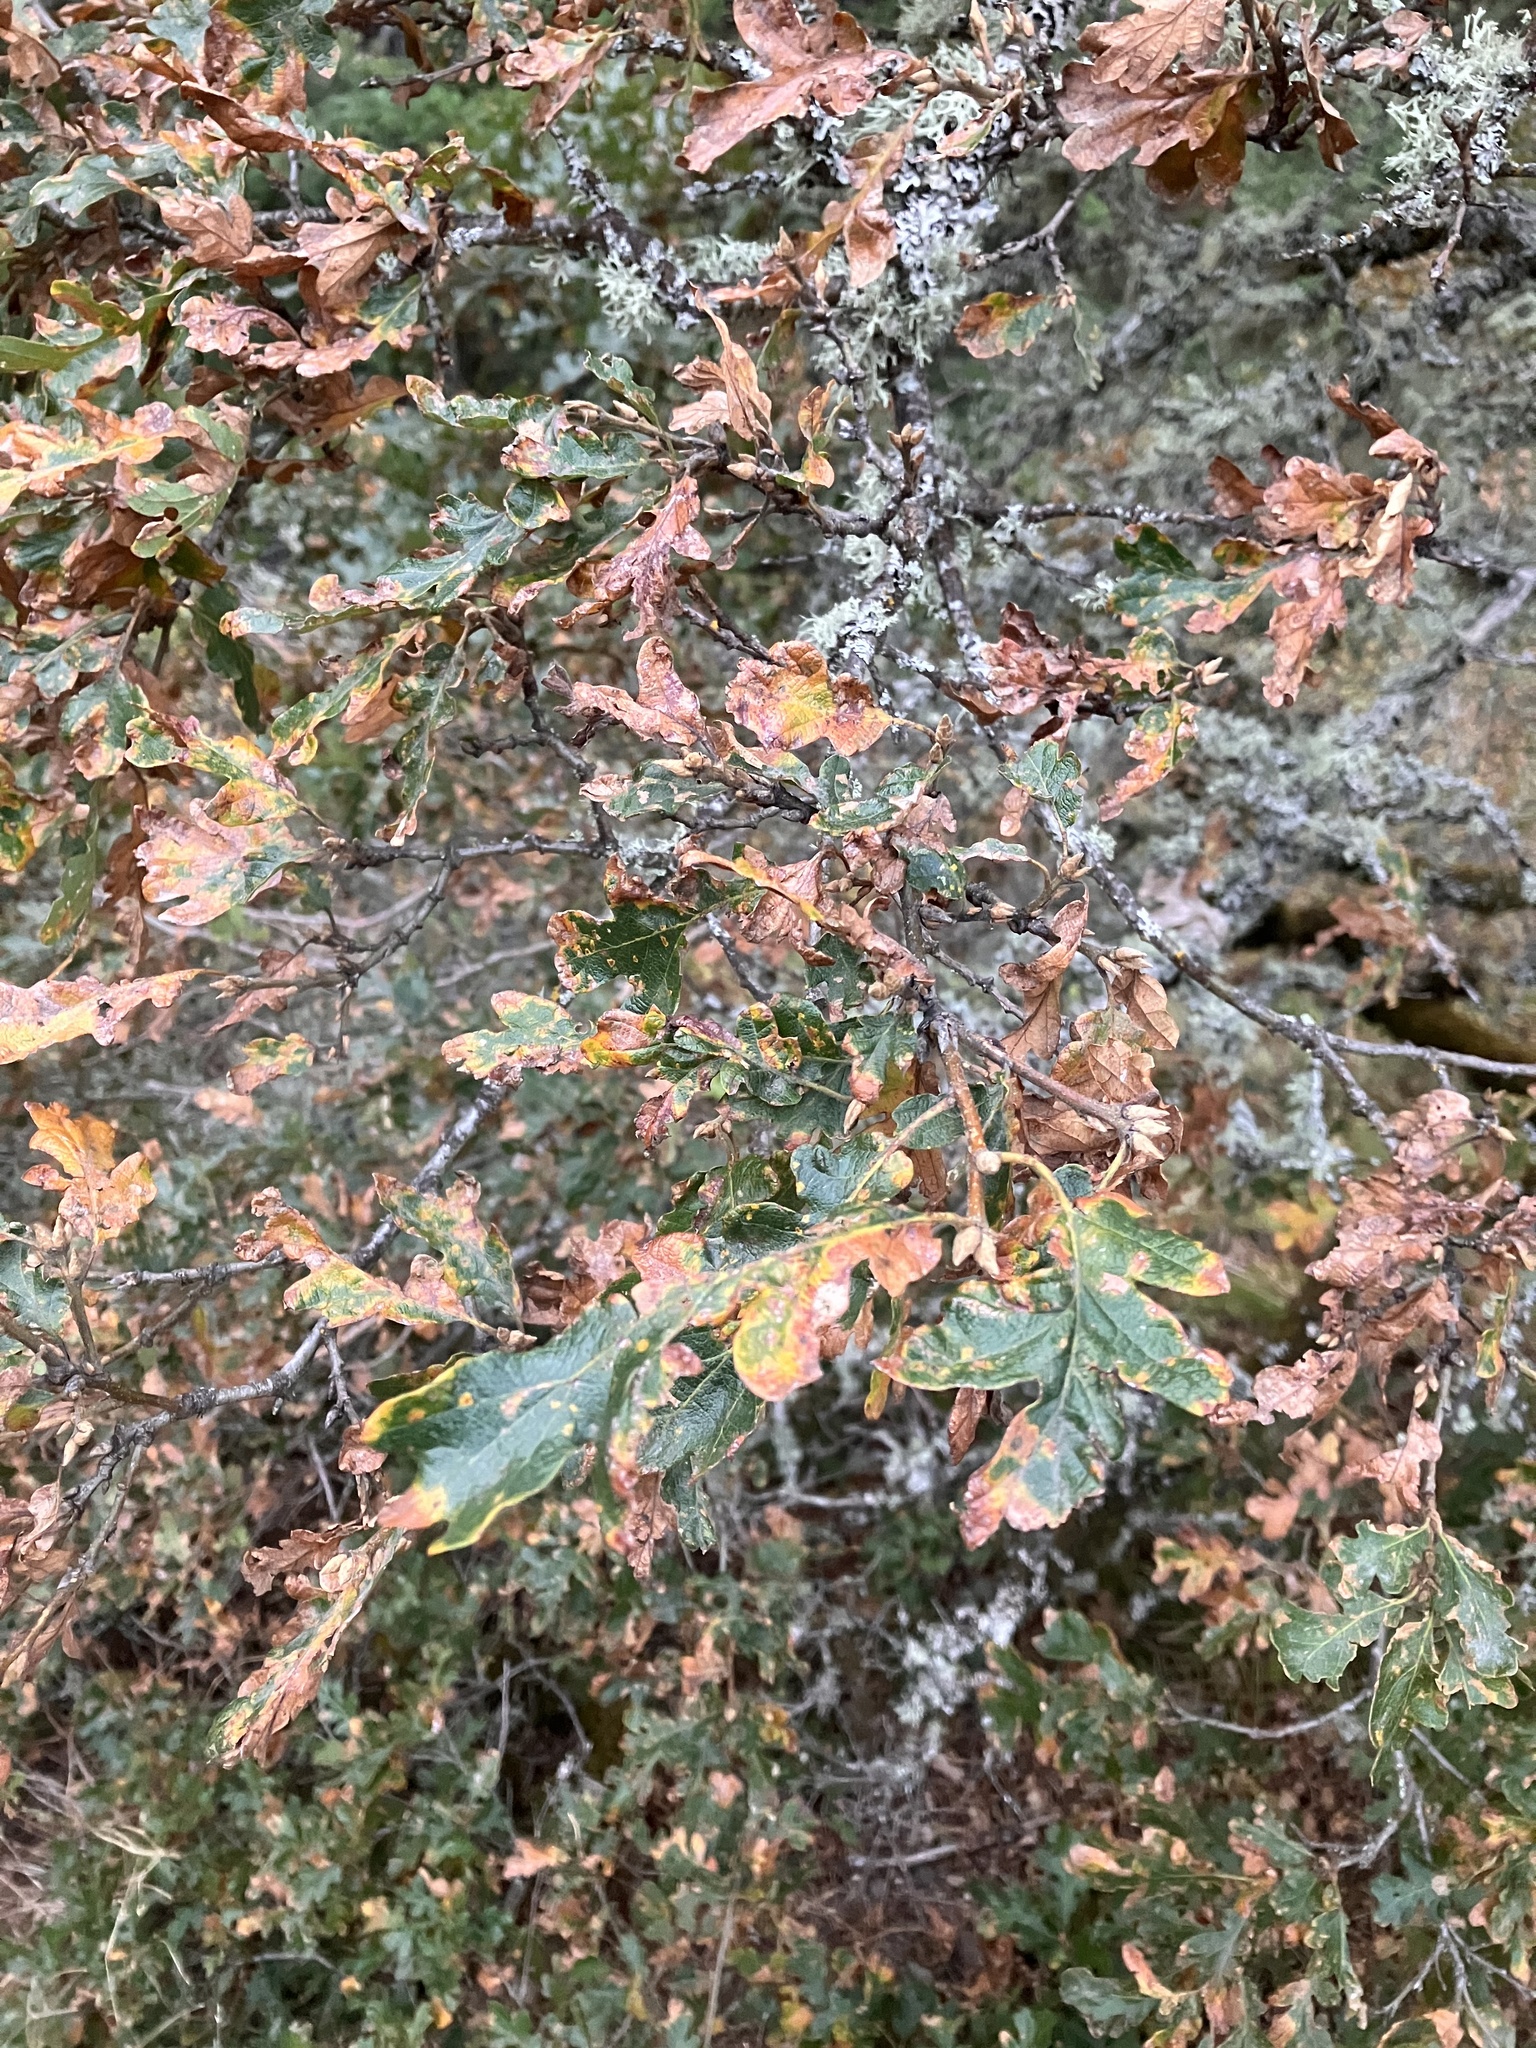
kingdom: Plantae
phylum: Tracheophyta
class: Magnoliopsida
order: Fagales
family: Fagaceae
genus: Quercus
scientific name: Quercus garryana
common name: Garry oak
